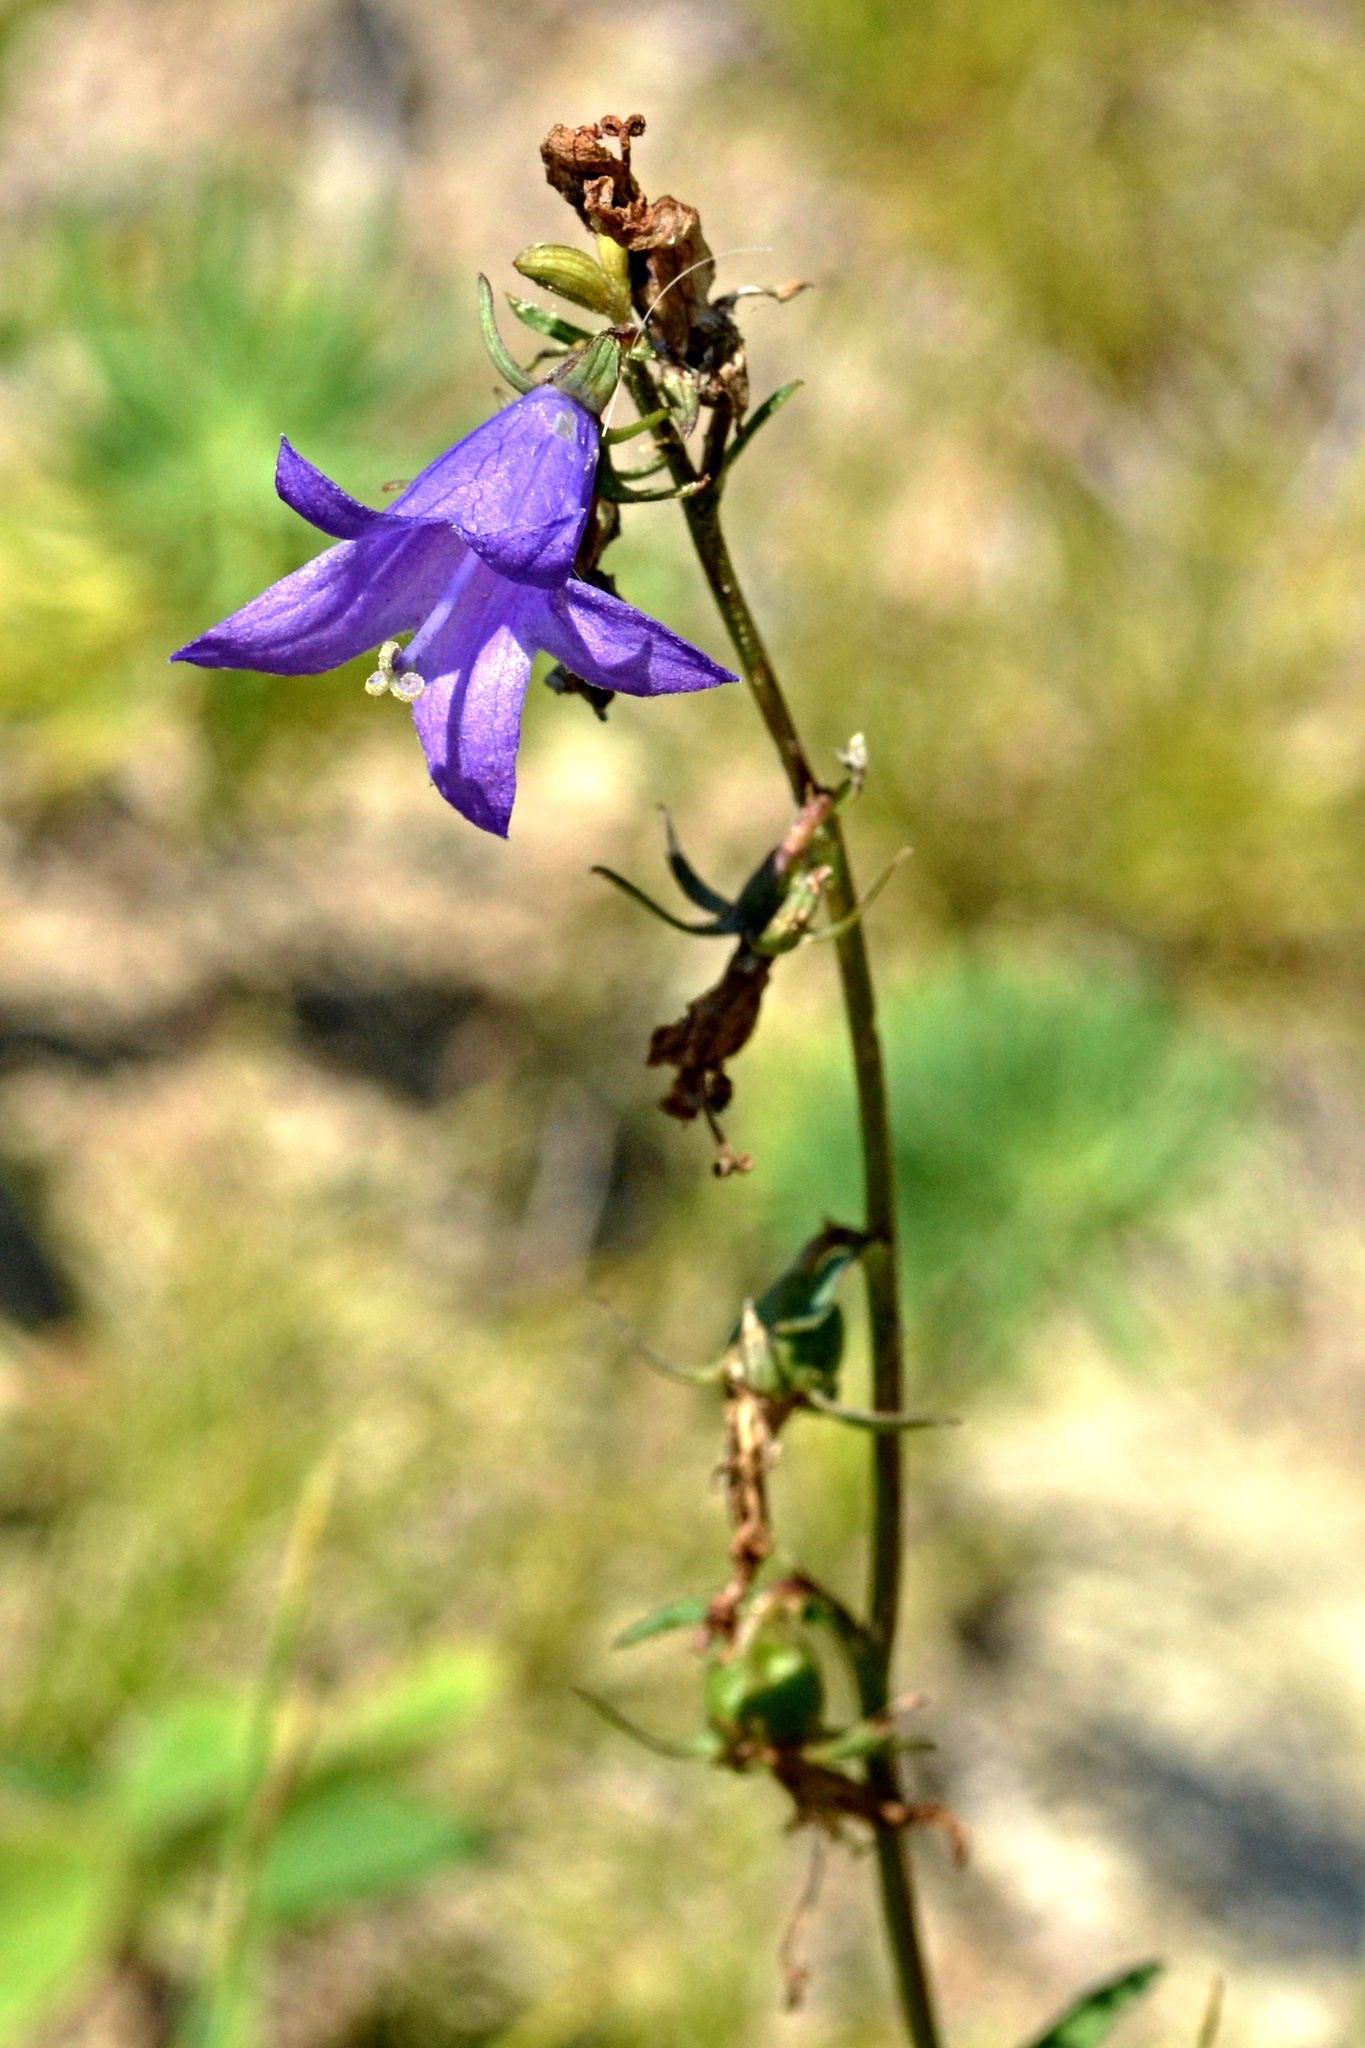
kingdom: Plantae
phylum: Tracheophyta
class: Magnoliopsida
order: Asterales
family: Campanulaceae
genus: Campanula
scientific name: Campanula rapunculoides
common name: Creeping bellflower
